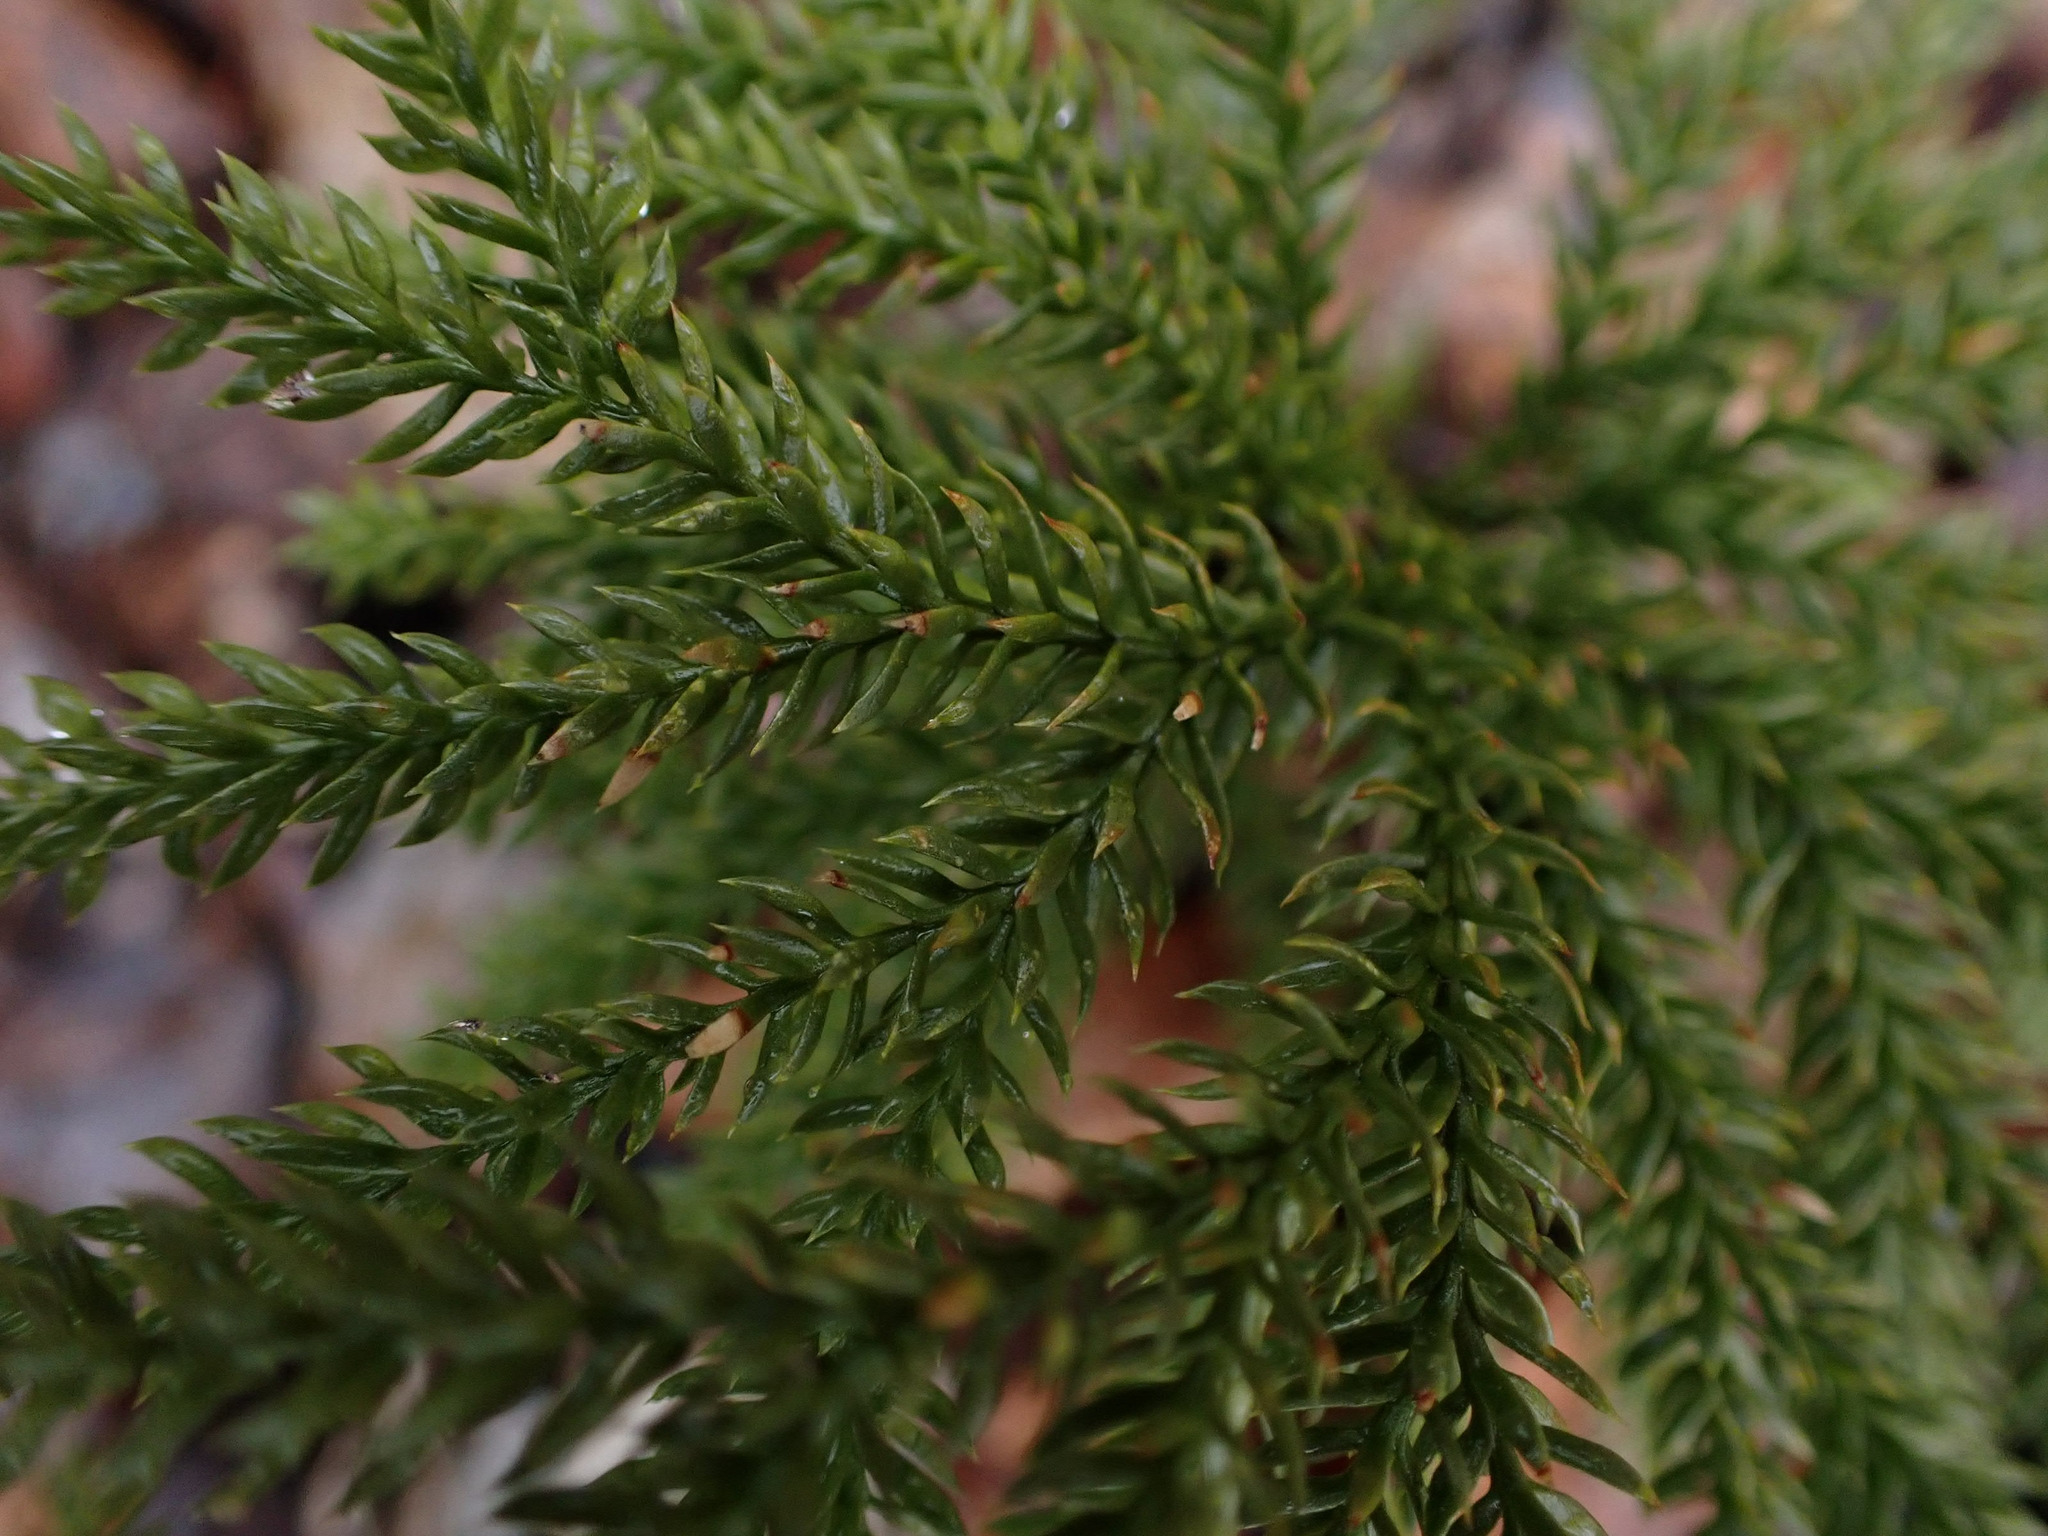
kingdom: Plantae
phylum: Tracheophyta
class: Lycopodiopsida
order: Lycopodiales
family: Lycopodiaceae
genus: Dendrolycopodium
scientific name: Dendrolycopodium dendroideum
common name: Northern tree-clubmoss
